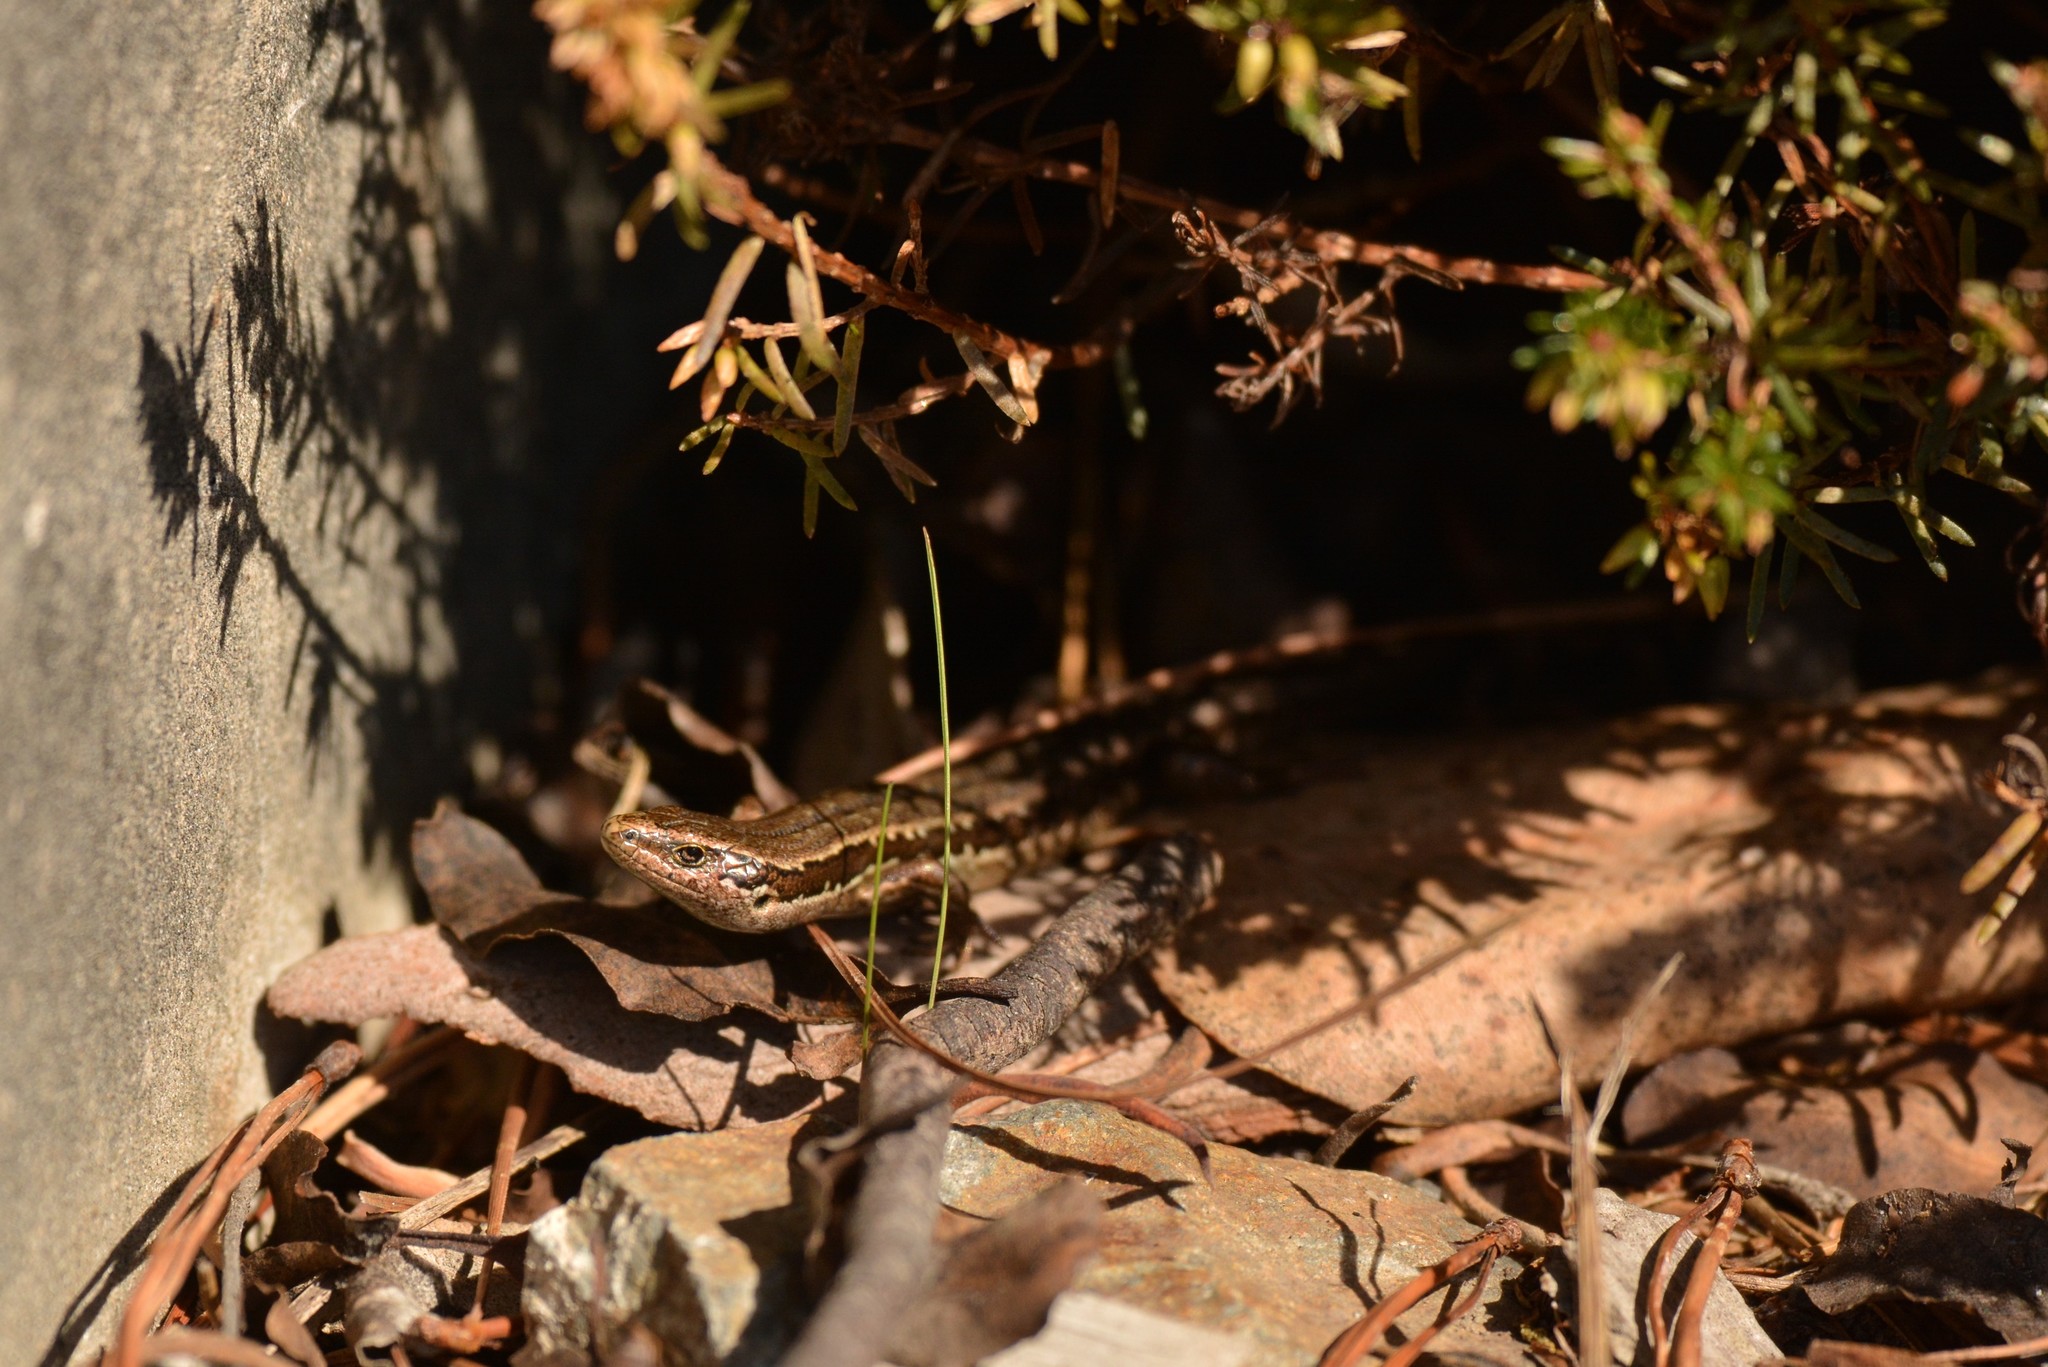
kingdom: Animalia
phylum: Chordata
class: Squamata
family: Scincidae
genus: Oligosoma
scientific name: Oligosoma polychroma
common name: Common new zealand skink
